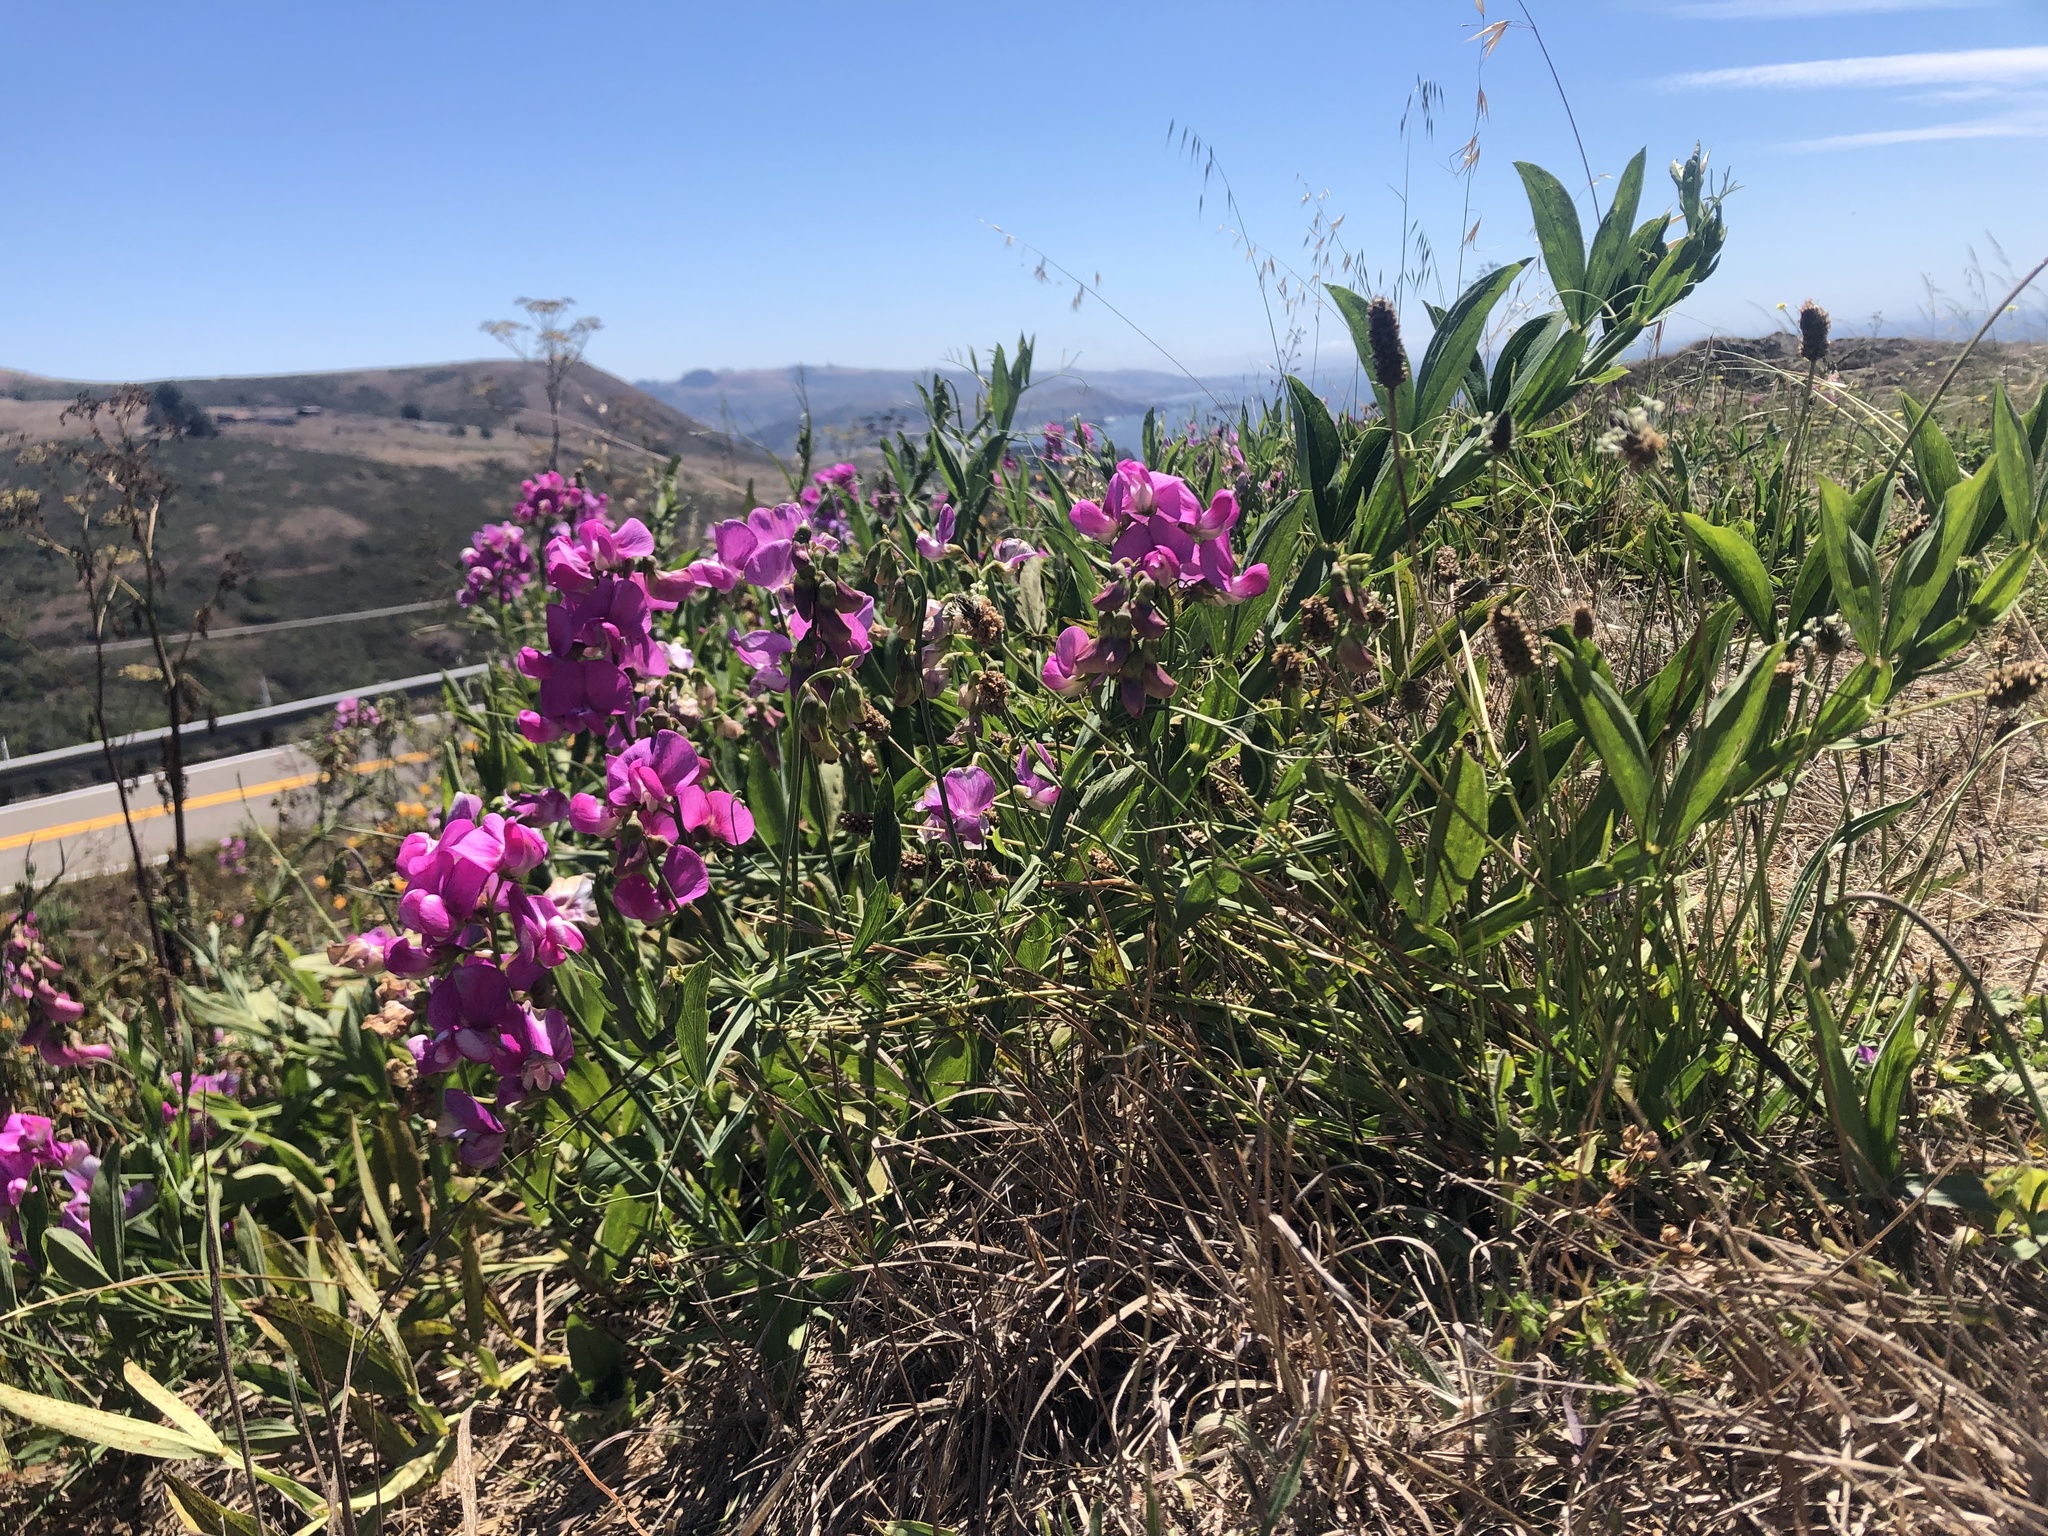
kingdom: Plantae
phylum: Tracheophyta
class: Magnoliopsida
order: Fabales
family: Fabaceae
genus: Lathyrus
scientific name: Lathyrus latifolius
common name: Perennial pea
